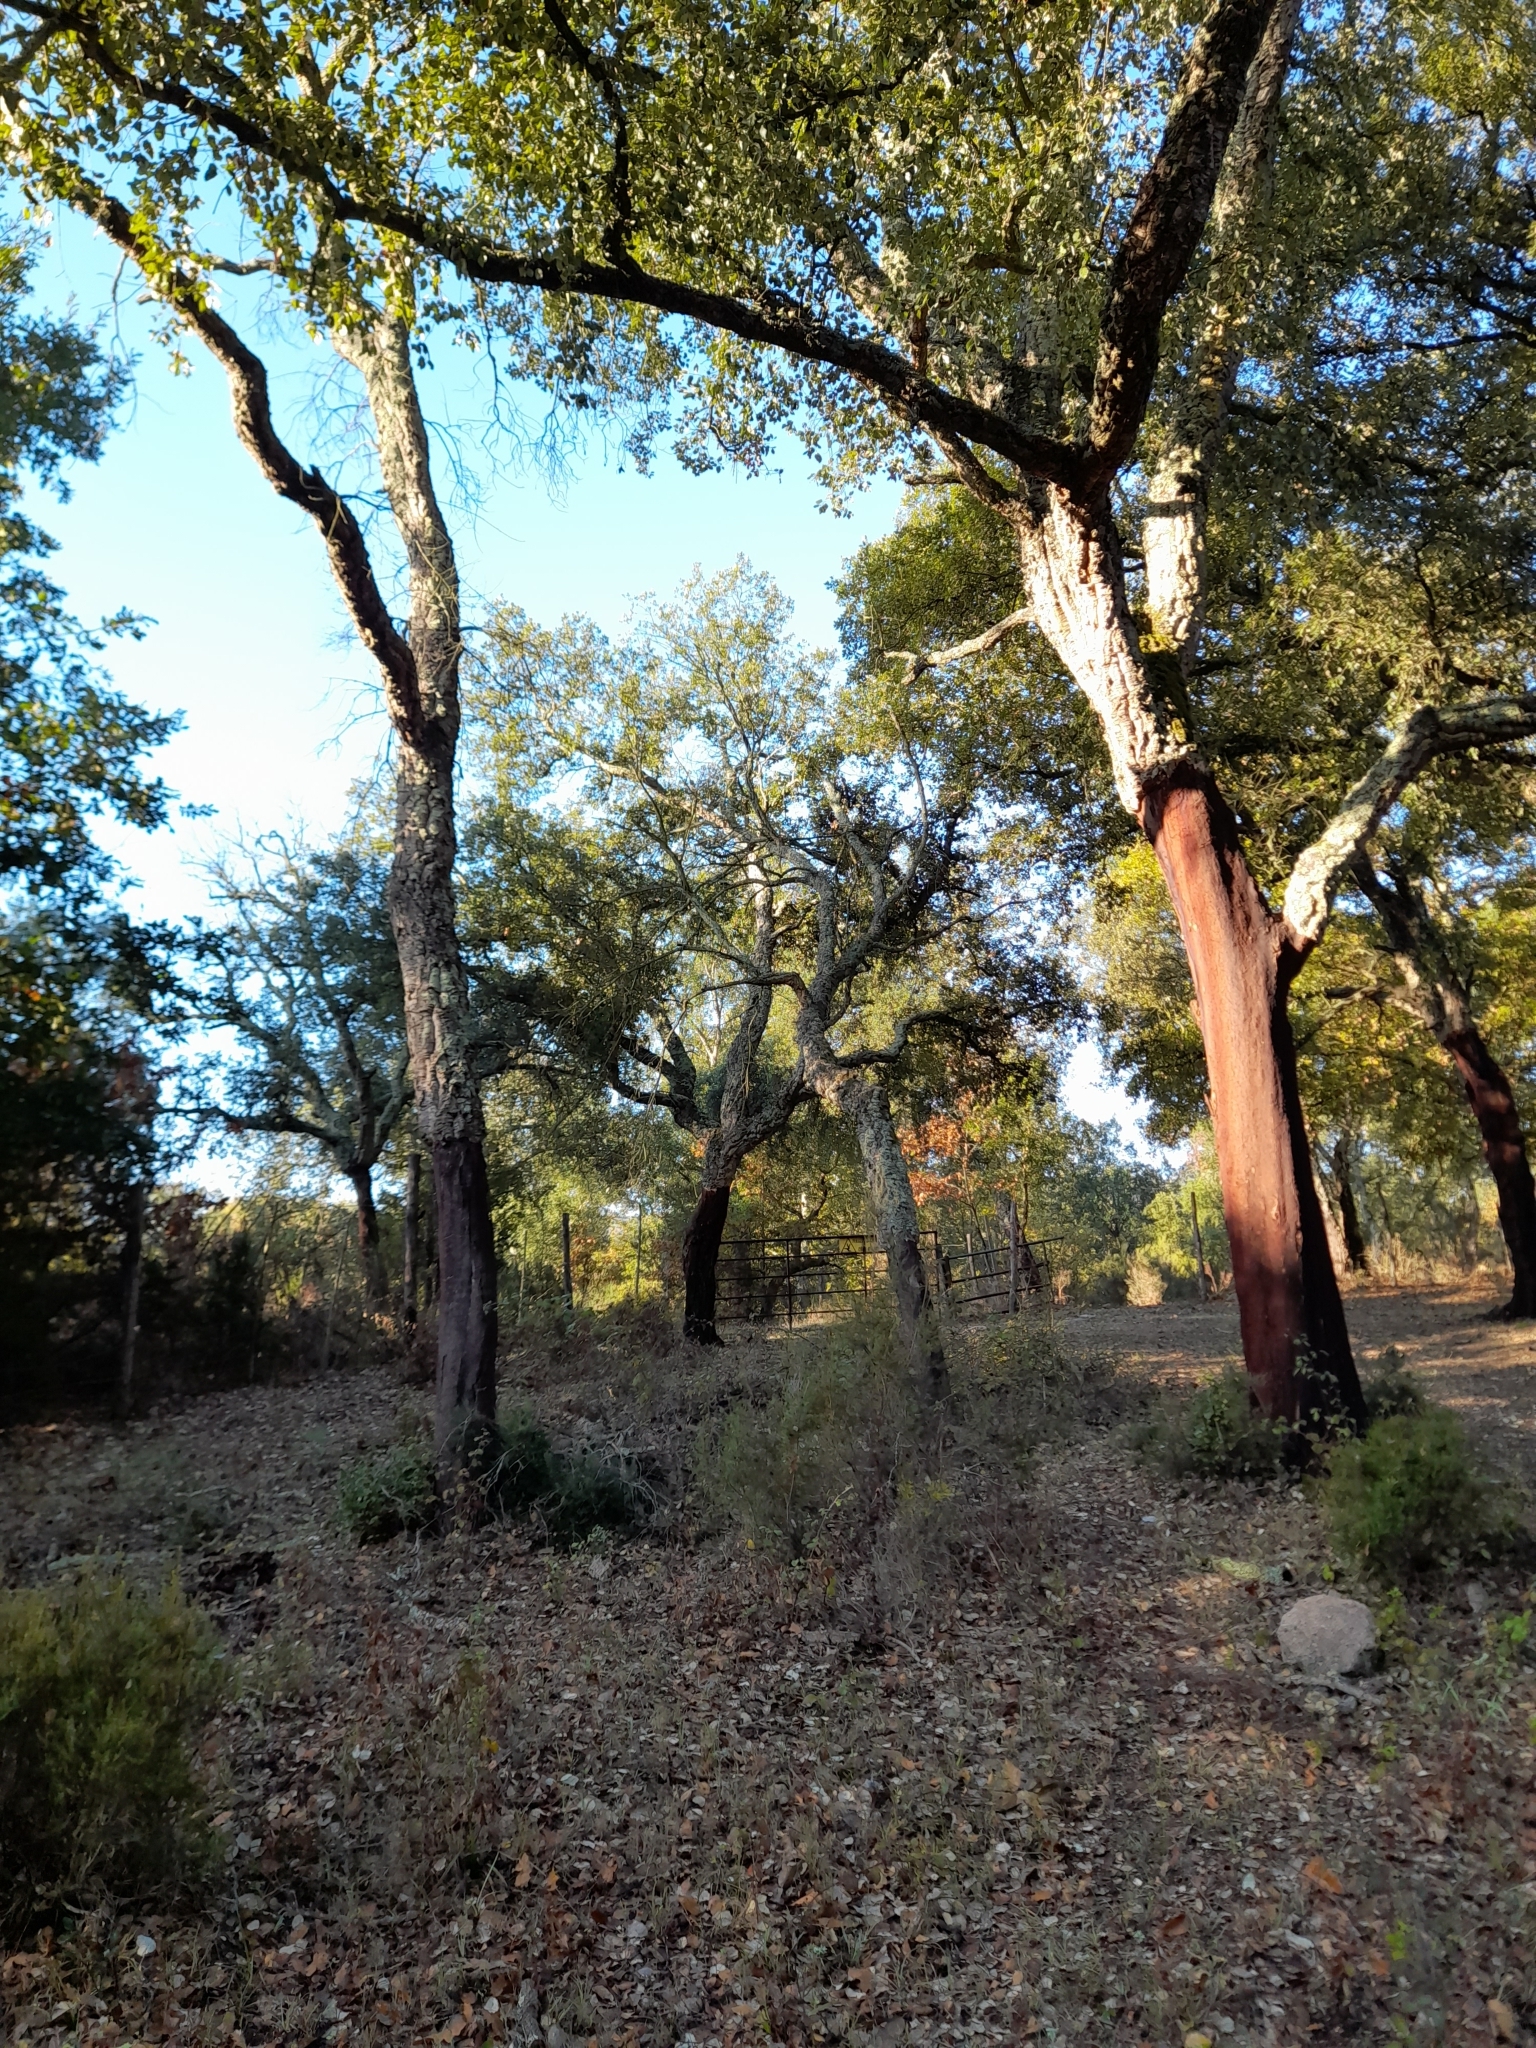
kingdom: Plantae
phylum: Tracheophyta
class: Magnoliopsida
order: Fagales
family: Fagaceae
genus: Quercus
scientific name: Quercus suber
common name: Cork oak
